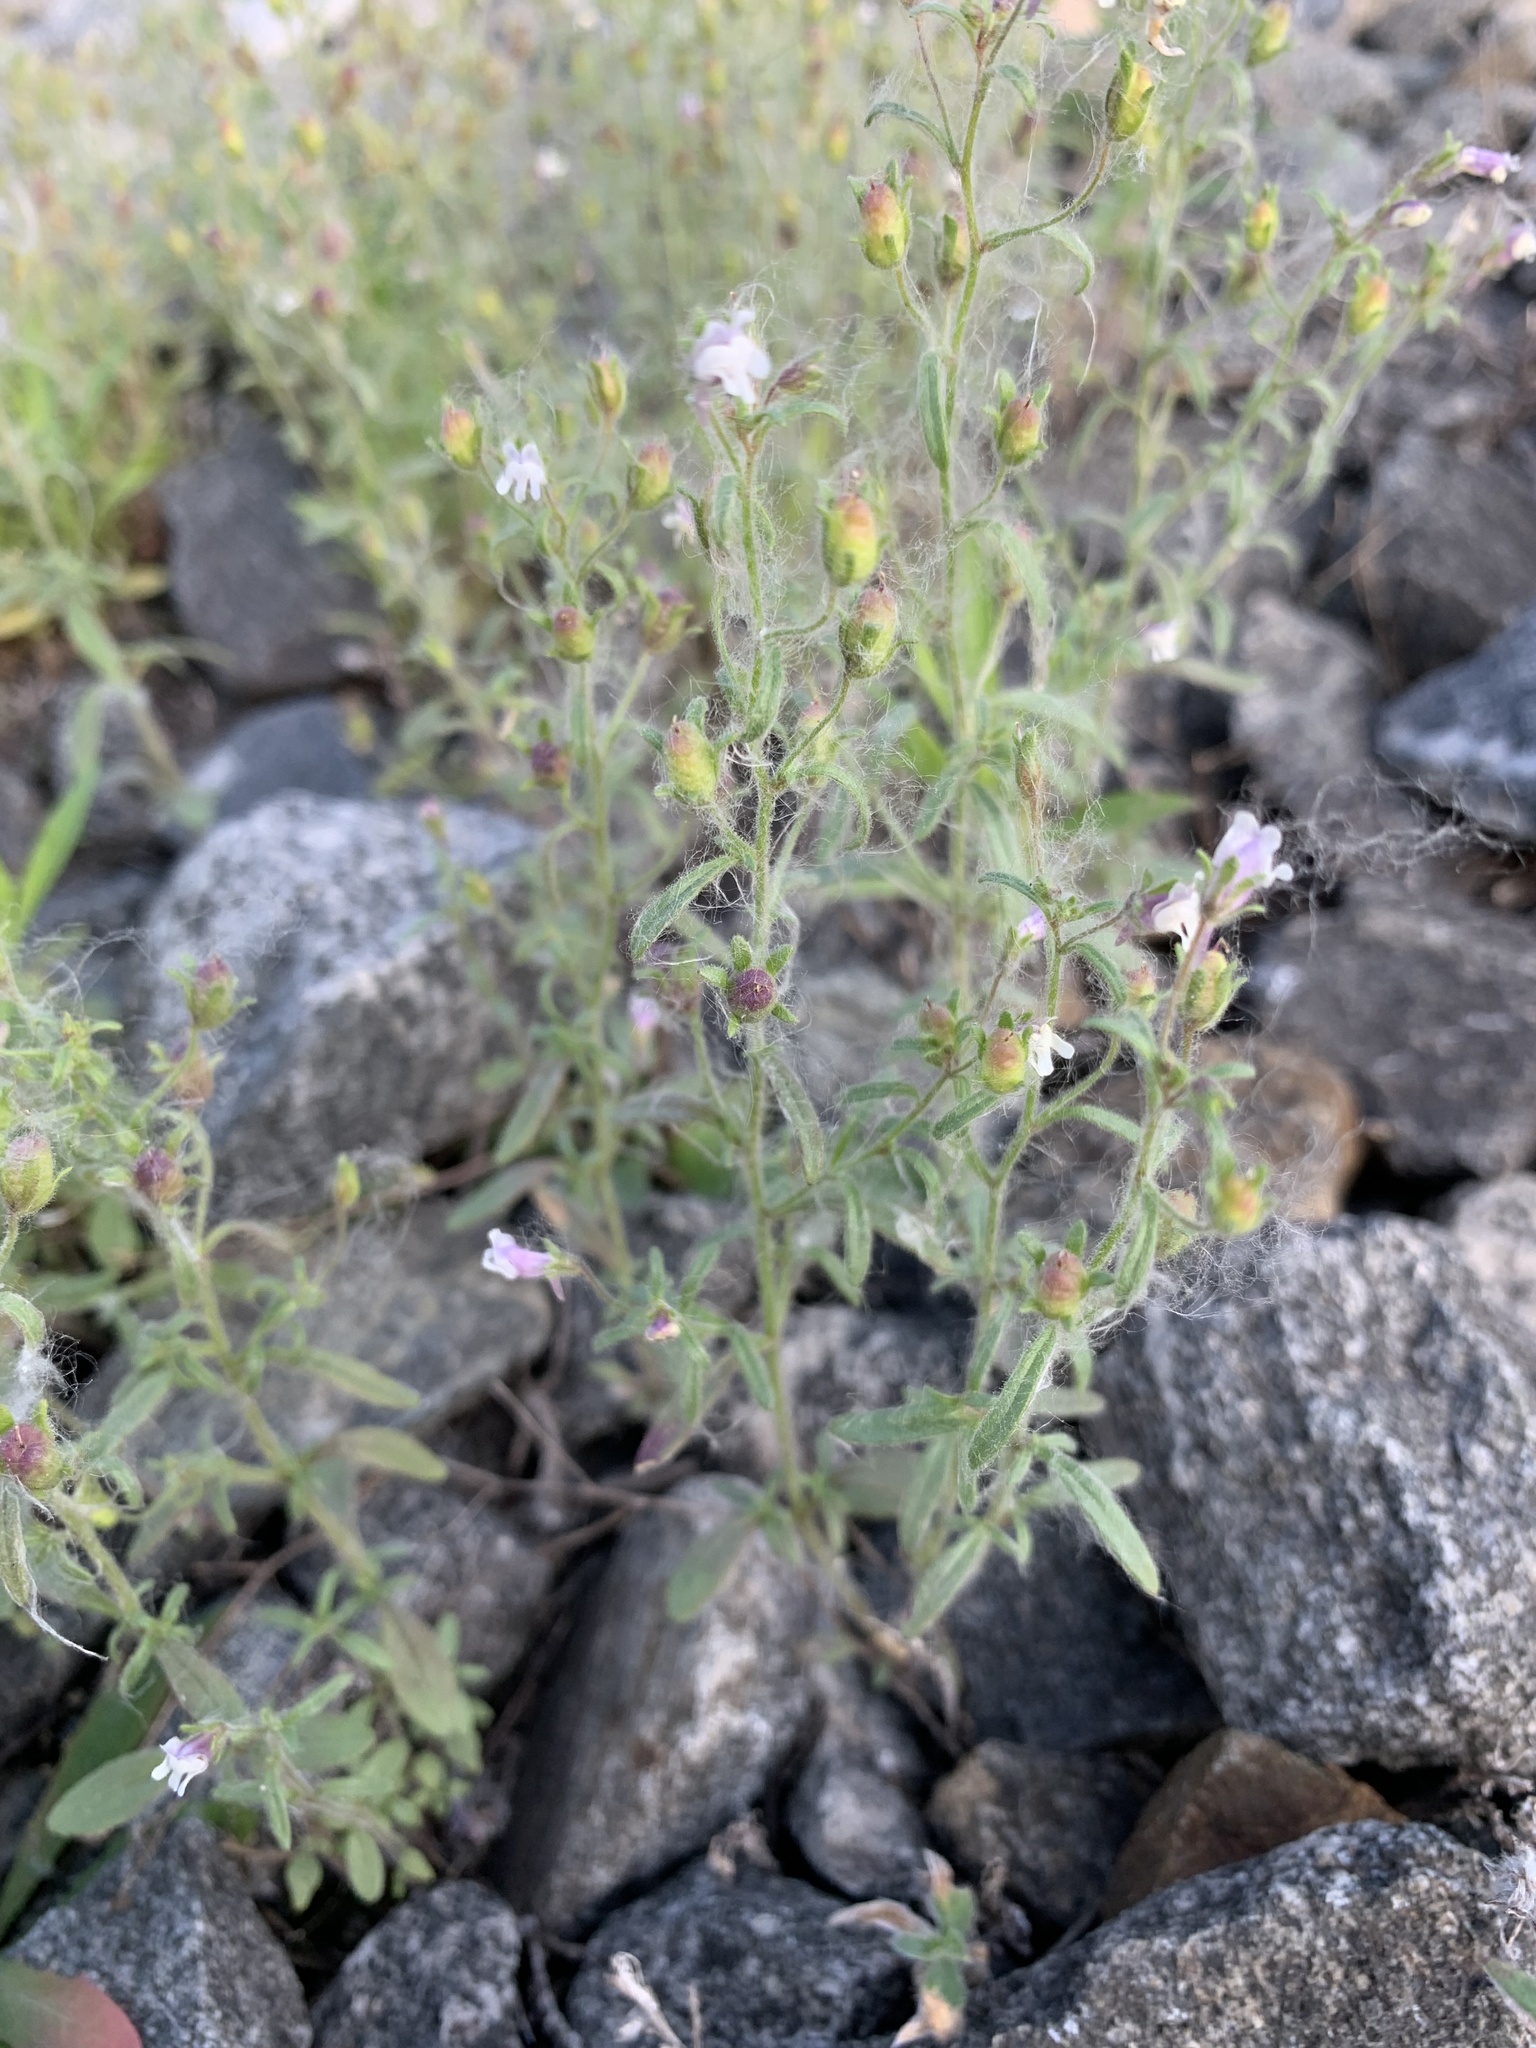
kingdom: Plantae
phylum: Tracheophyta
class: Magnoliopsida
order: Lamiales
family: Plantaginaceae
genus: Chaenorhinum
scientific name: Chaenorhinum minus
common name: Dwarf snapdragon
